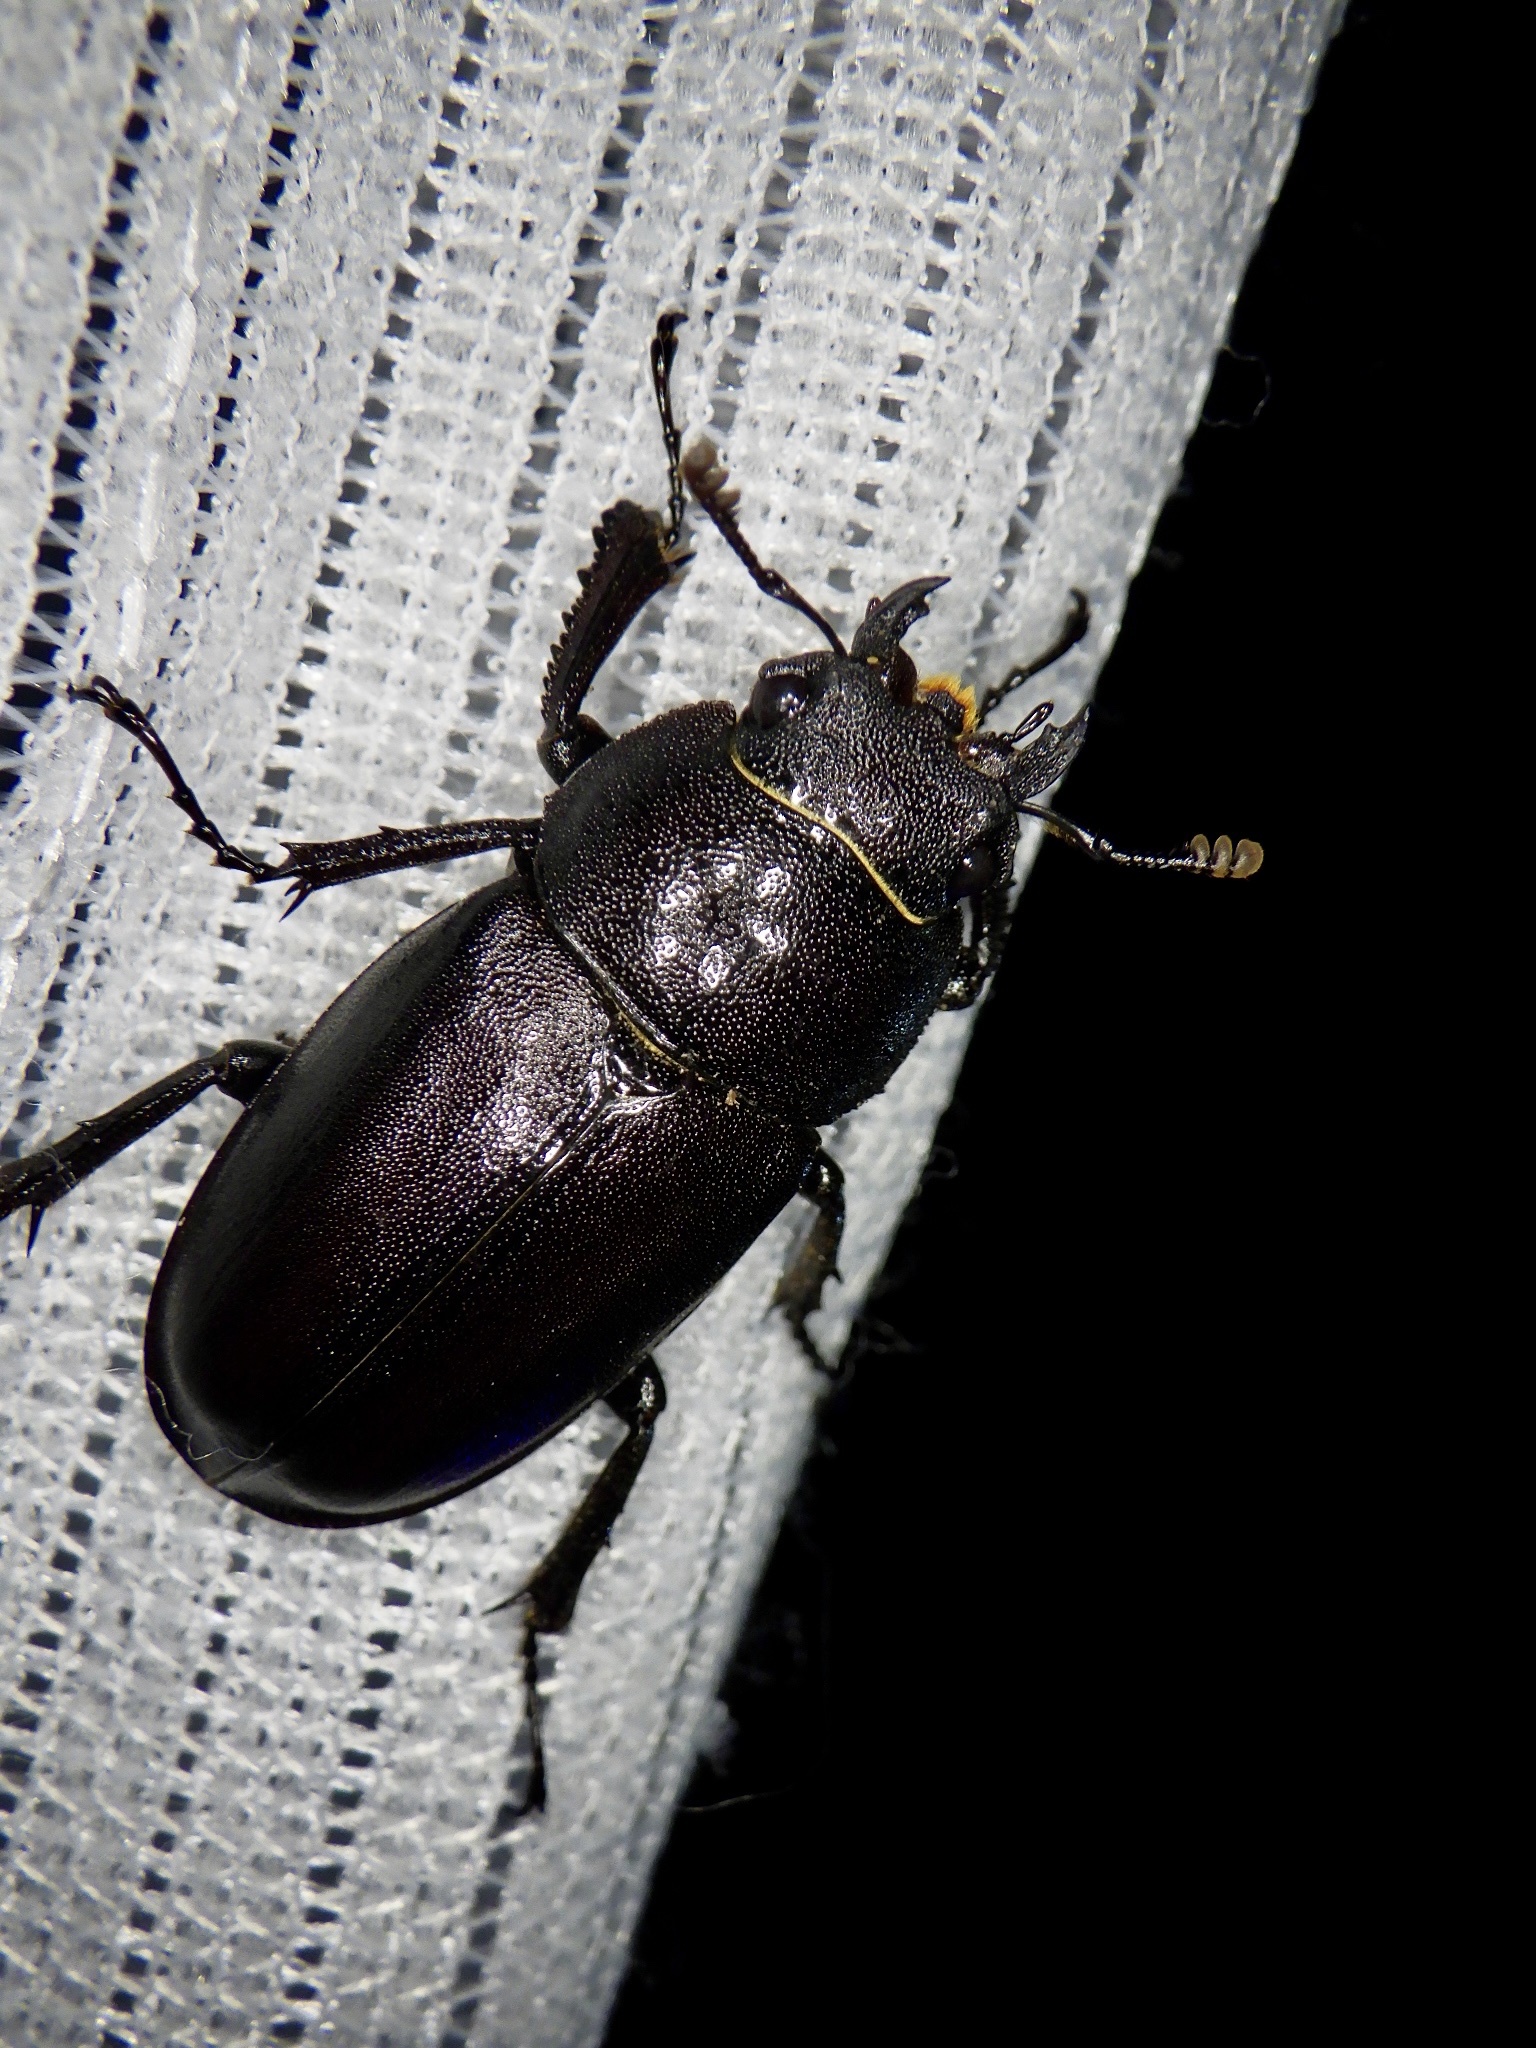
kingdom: Animalia
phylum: Arthropoda
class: Insecta
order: Coleoptera
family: Lucanidae
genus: Prosopocoilus
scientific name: Prosopocoilus inclinatus
